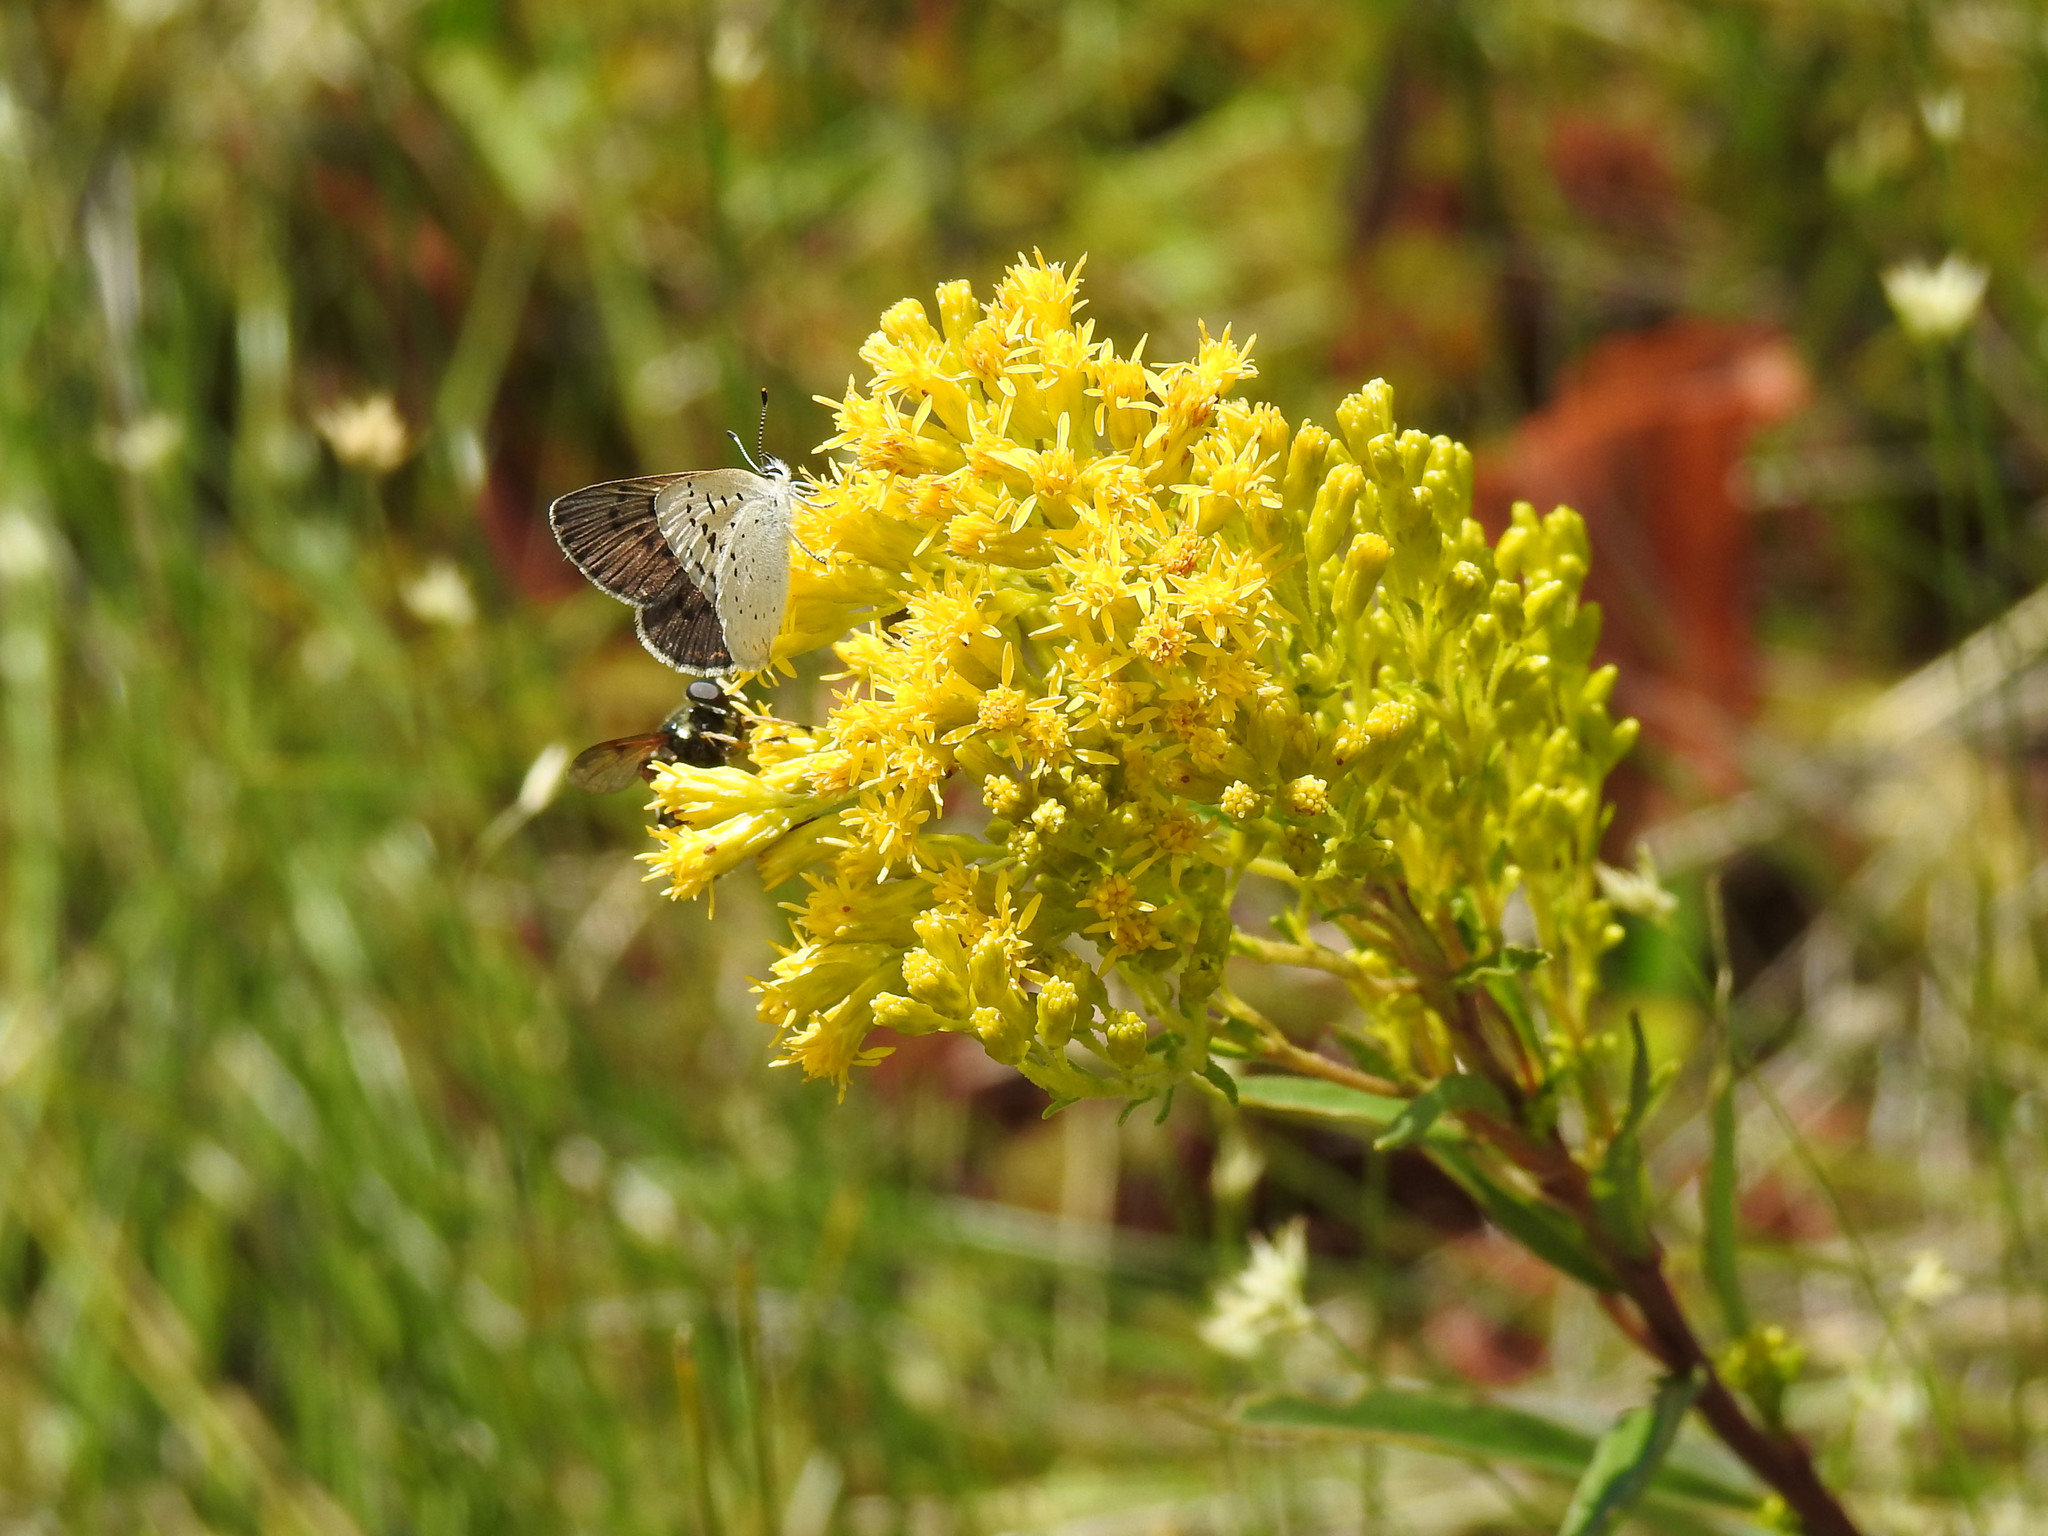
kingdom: Animalia
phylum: Arthropoda
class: Insecta
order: Lepidoptera
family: Lycaenidae
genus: Tharsalea
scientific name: Tharsalea epixanthe
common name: Bog copper
